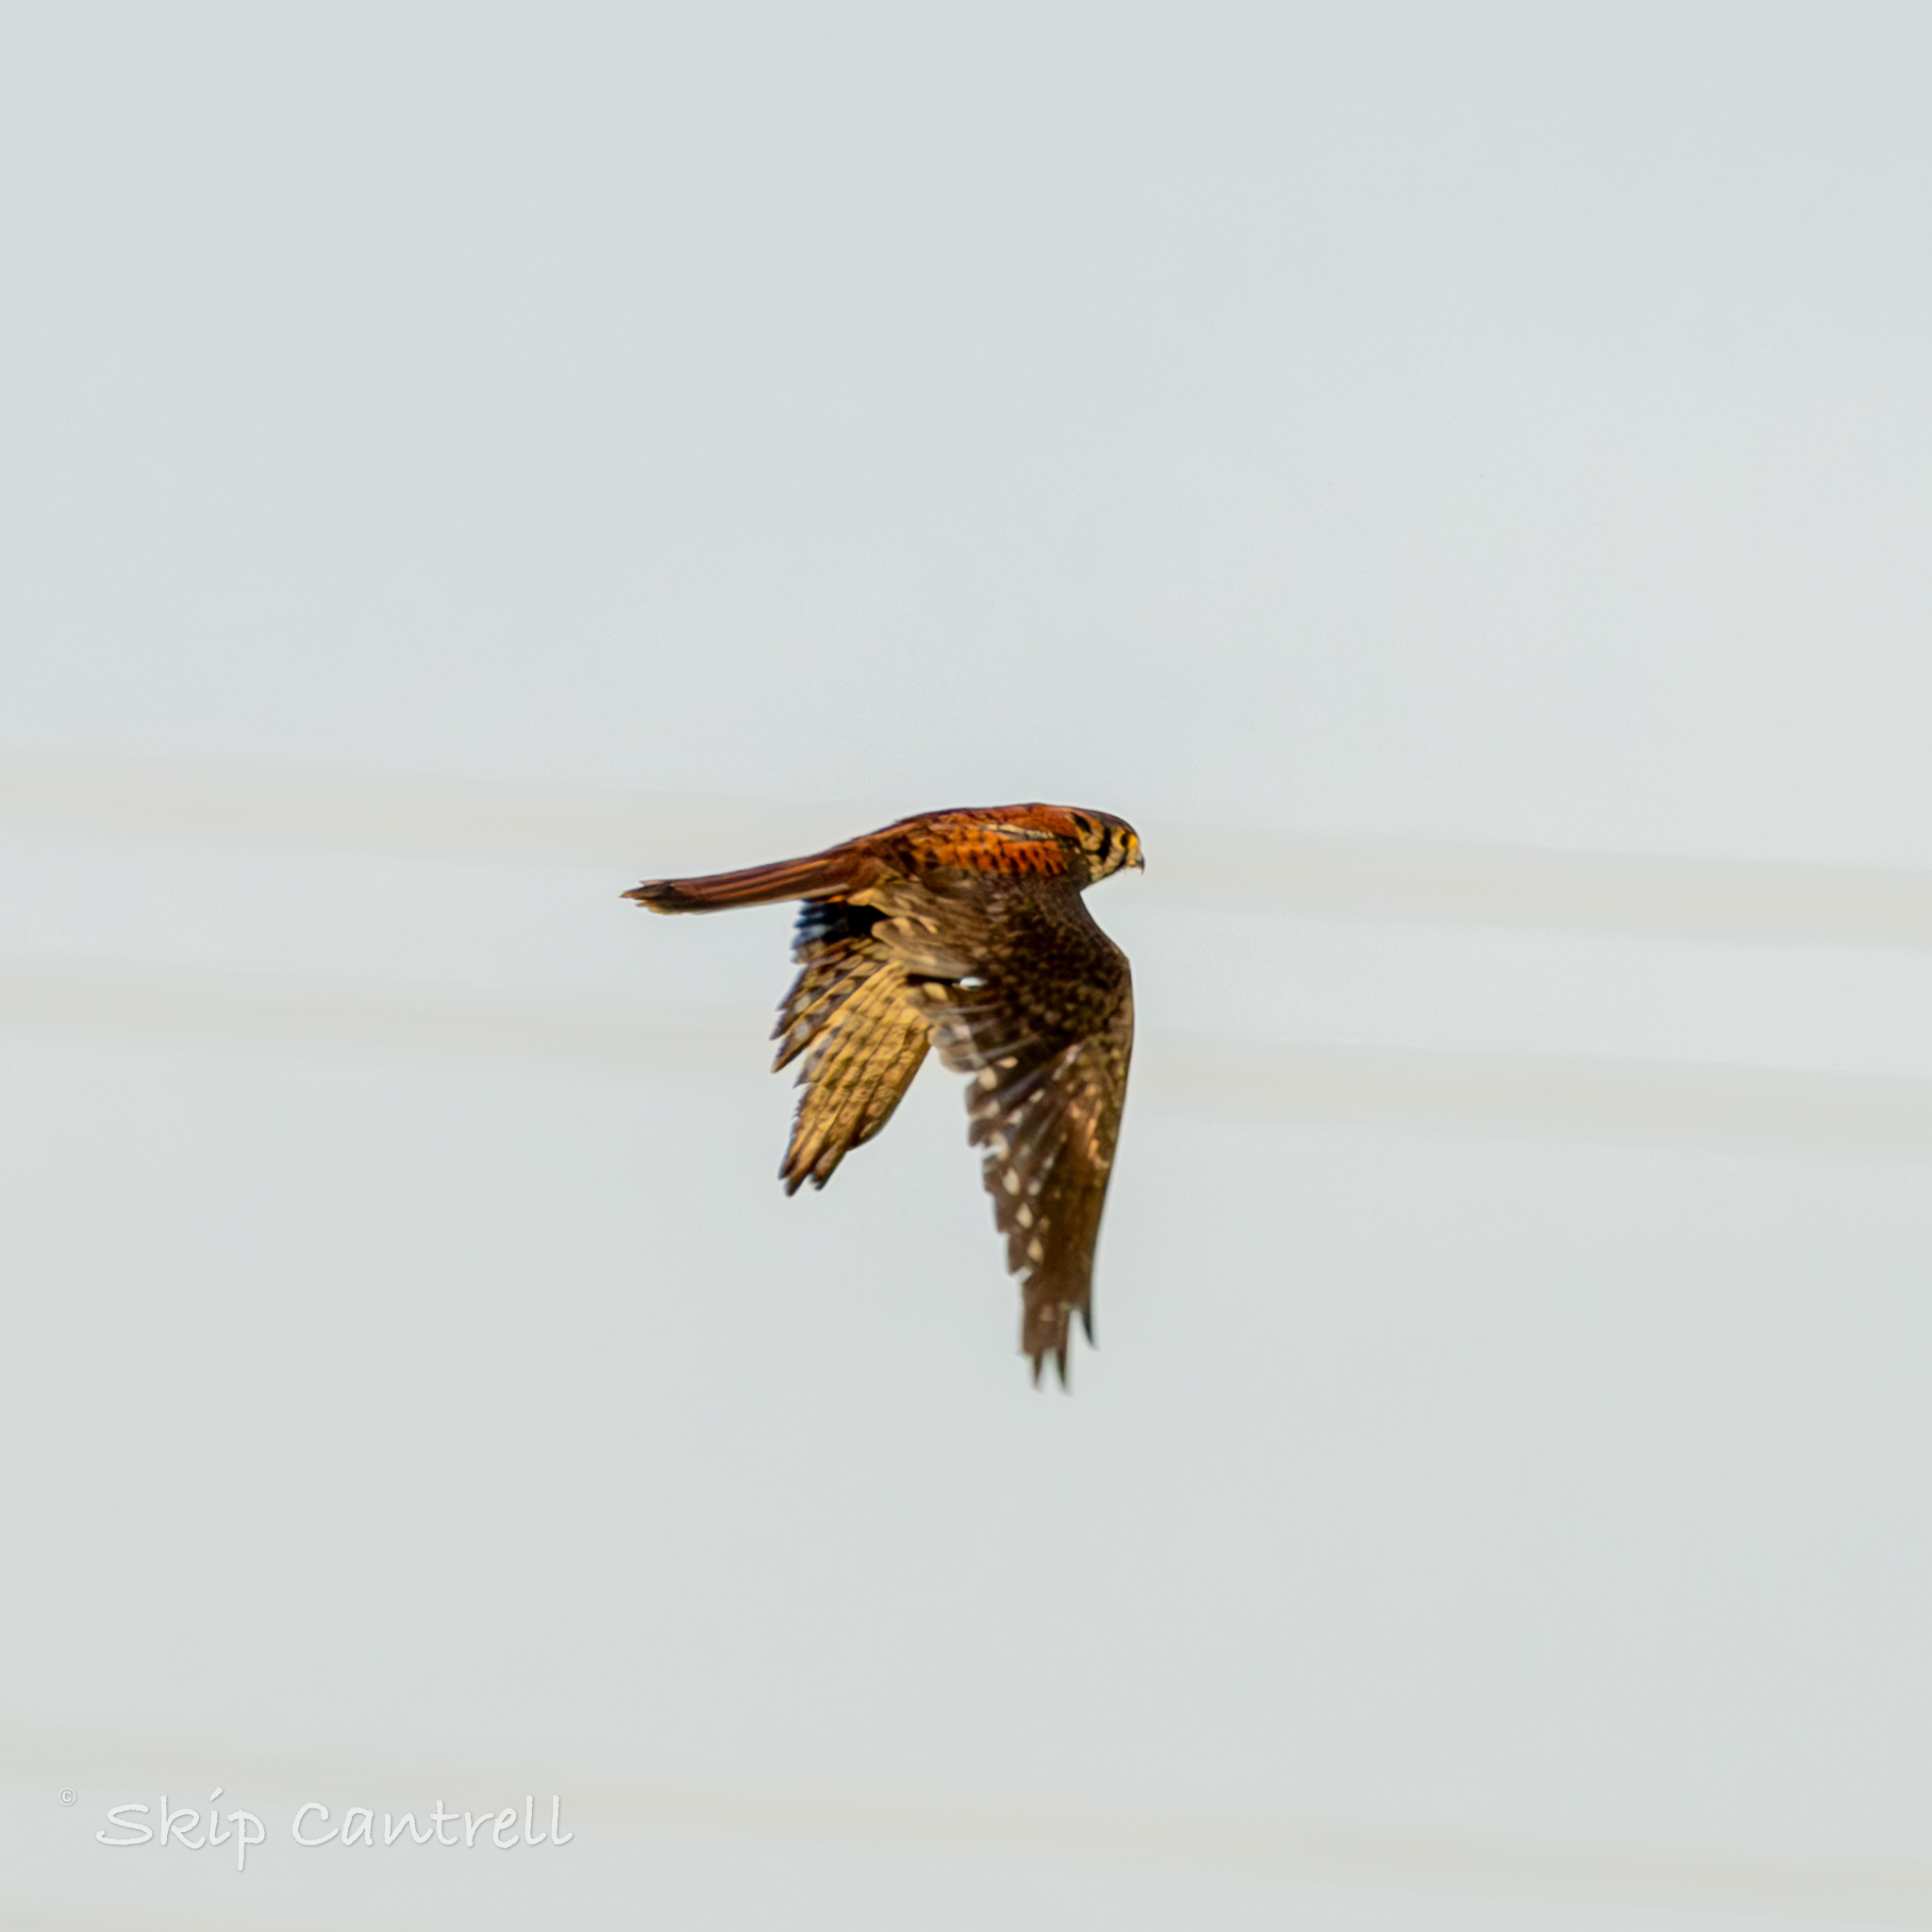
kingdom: Animalia
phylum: Chordata
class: Aves
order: Falconiformes
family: Falconidae
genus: Falco
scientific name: Falco sparverius
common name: American kestrel
